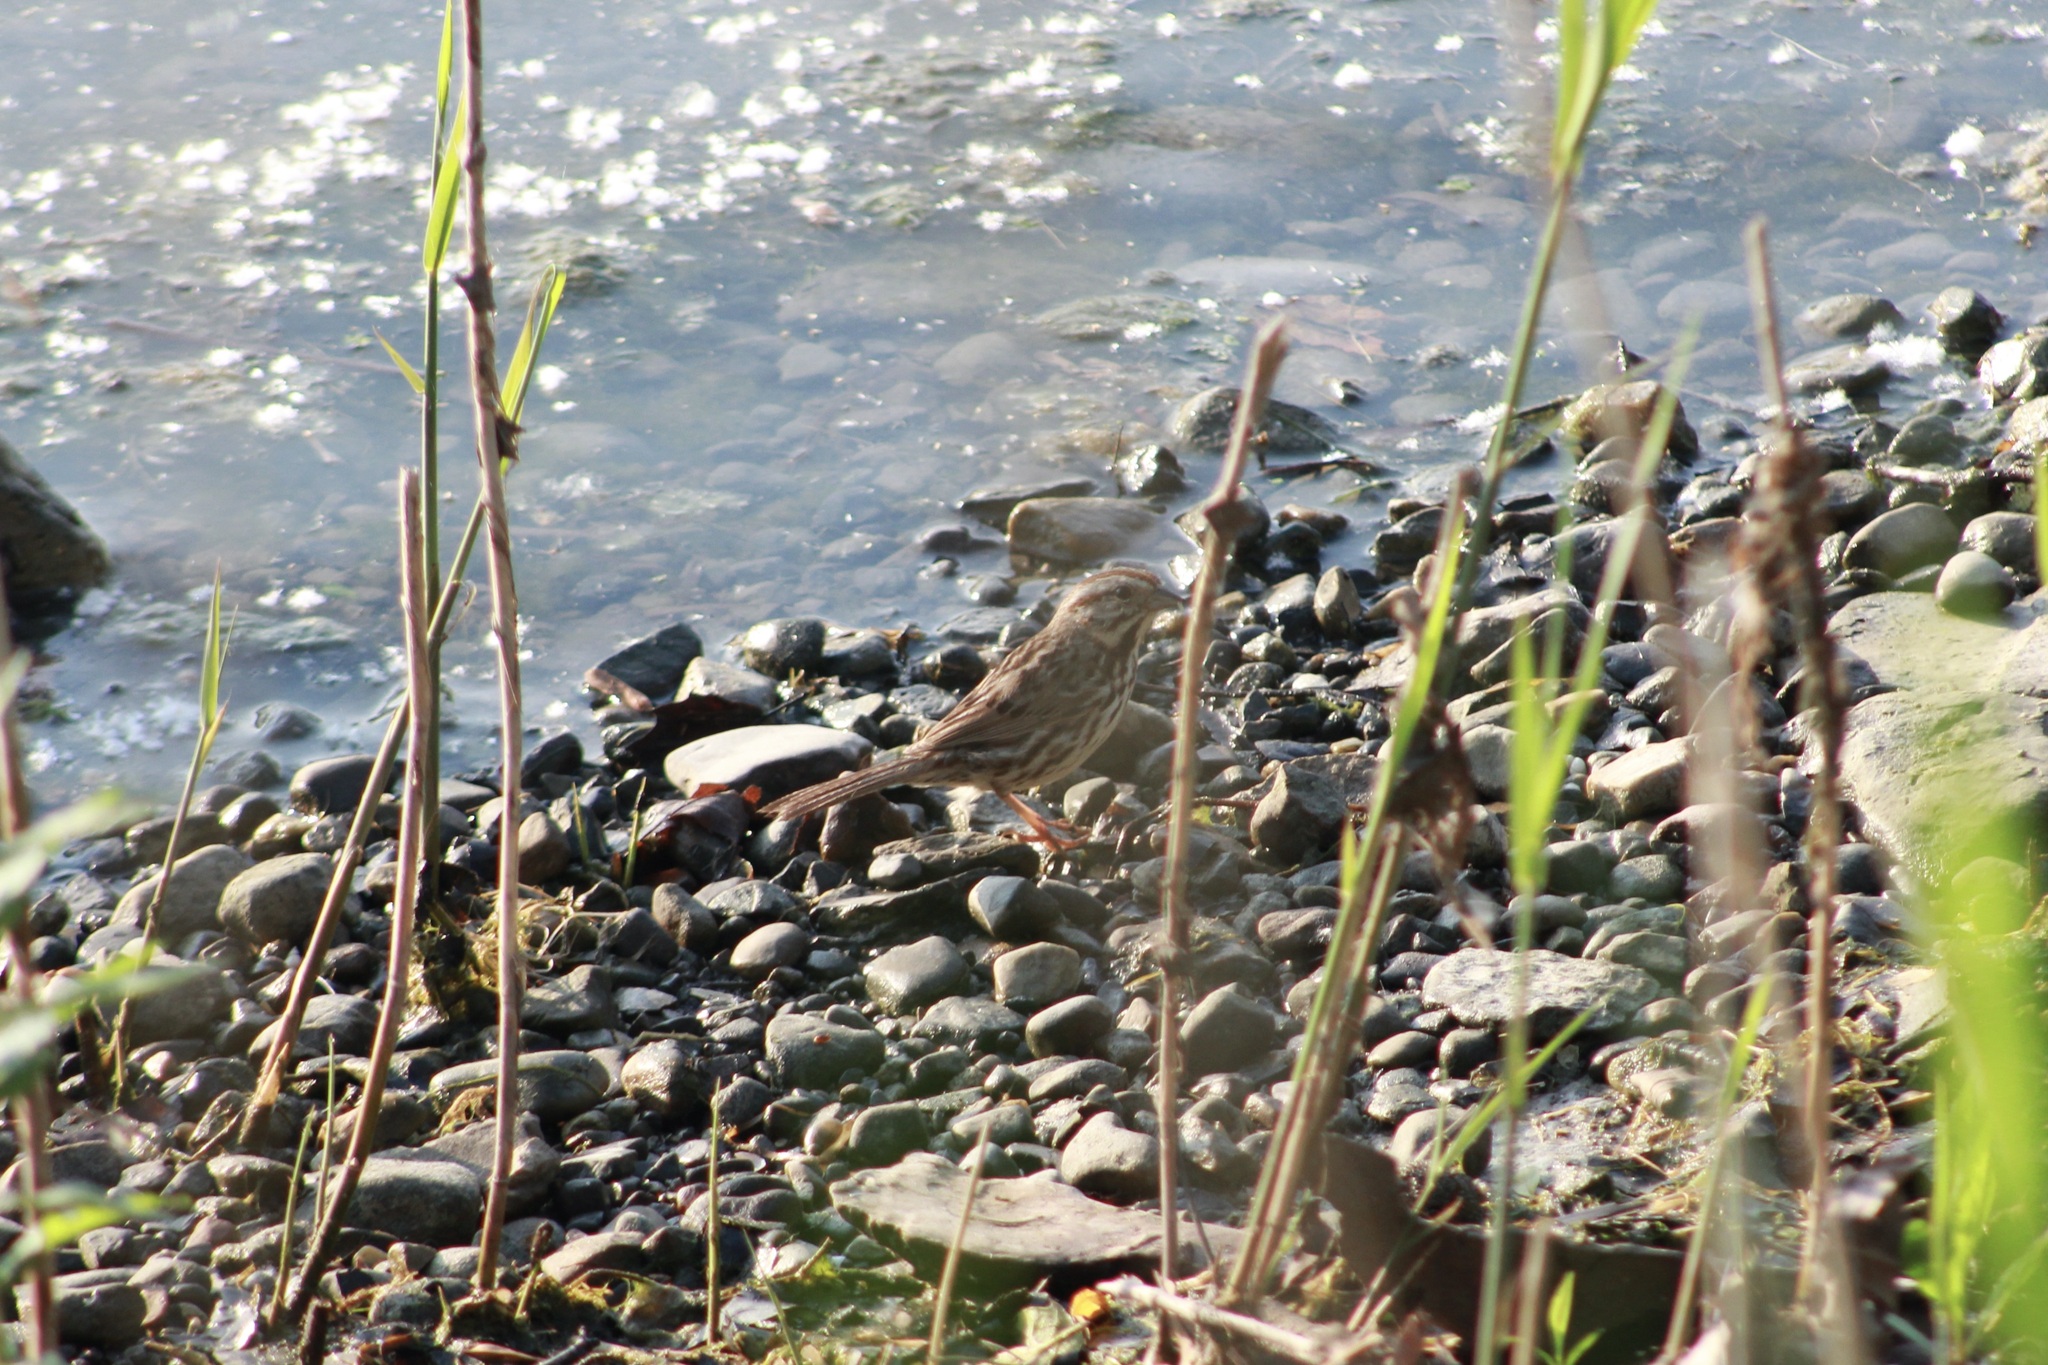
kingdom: Animalia
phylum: Chordata
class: Aves
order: Passeriformes
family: Passerellidae
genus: Melospiza
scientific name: Melospiza melodia
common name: Song sparrow
